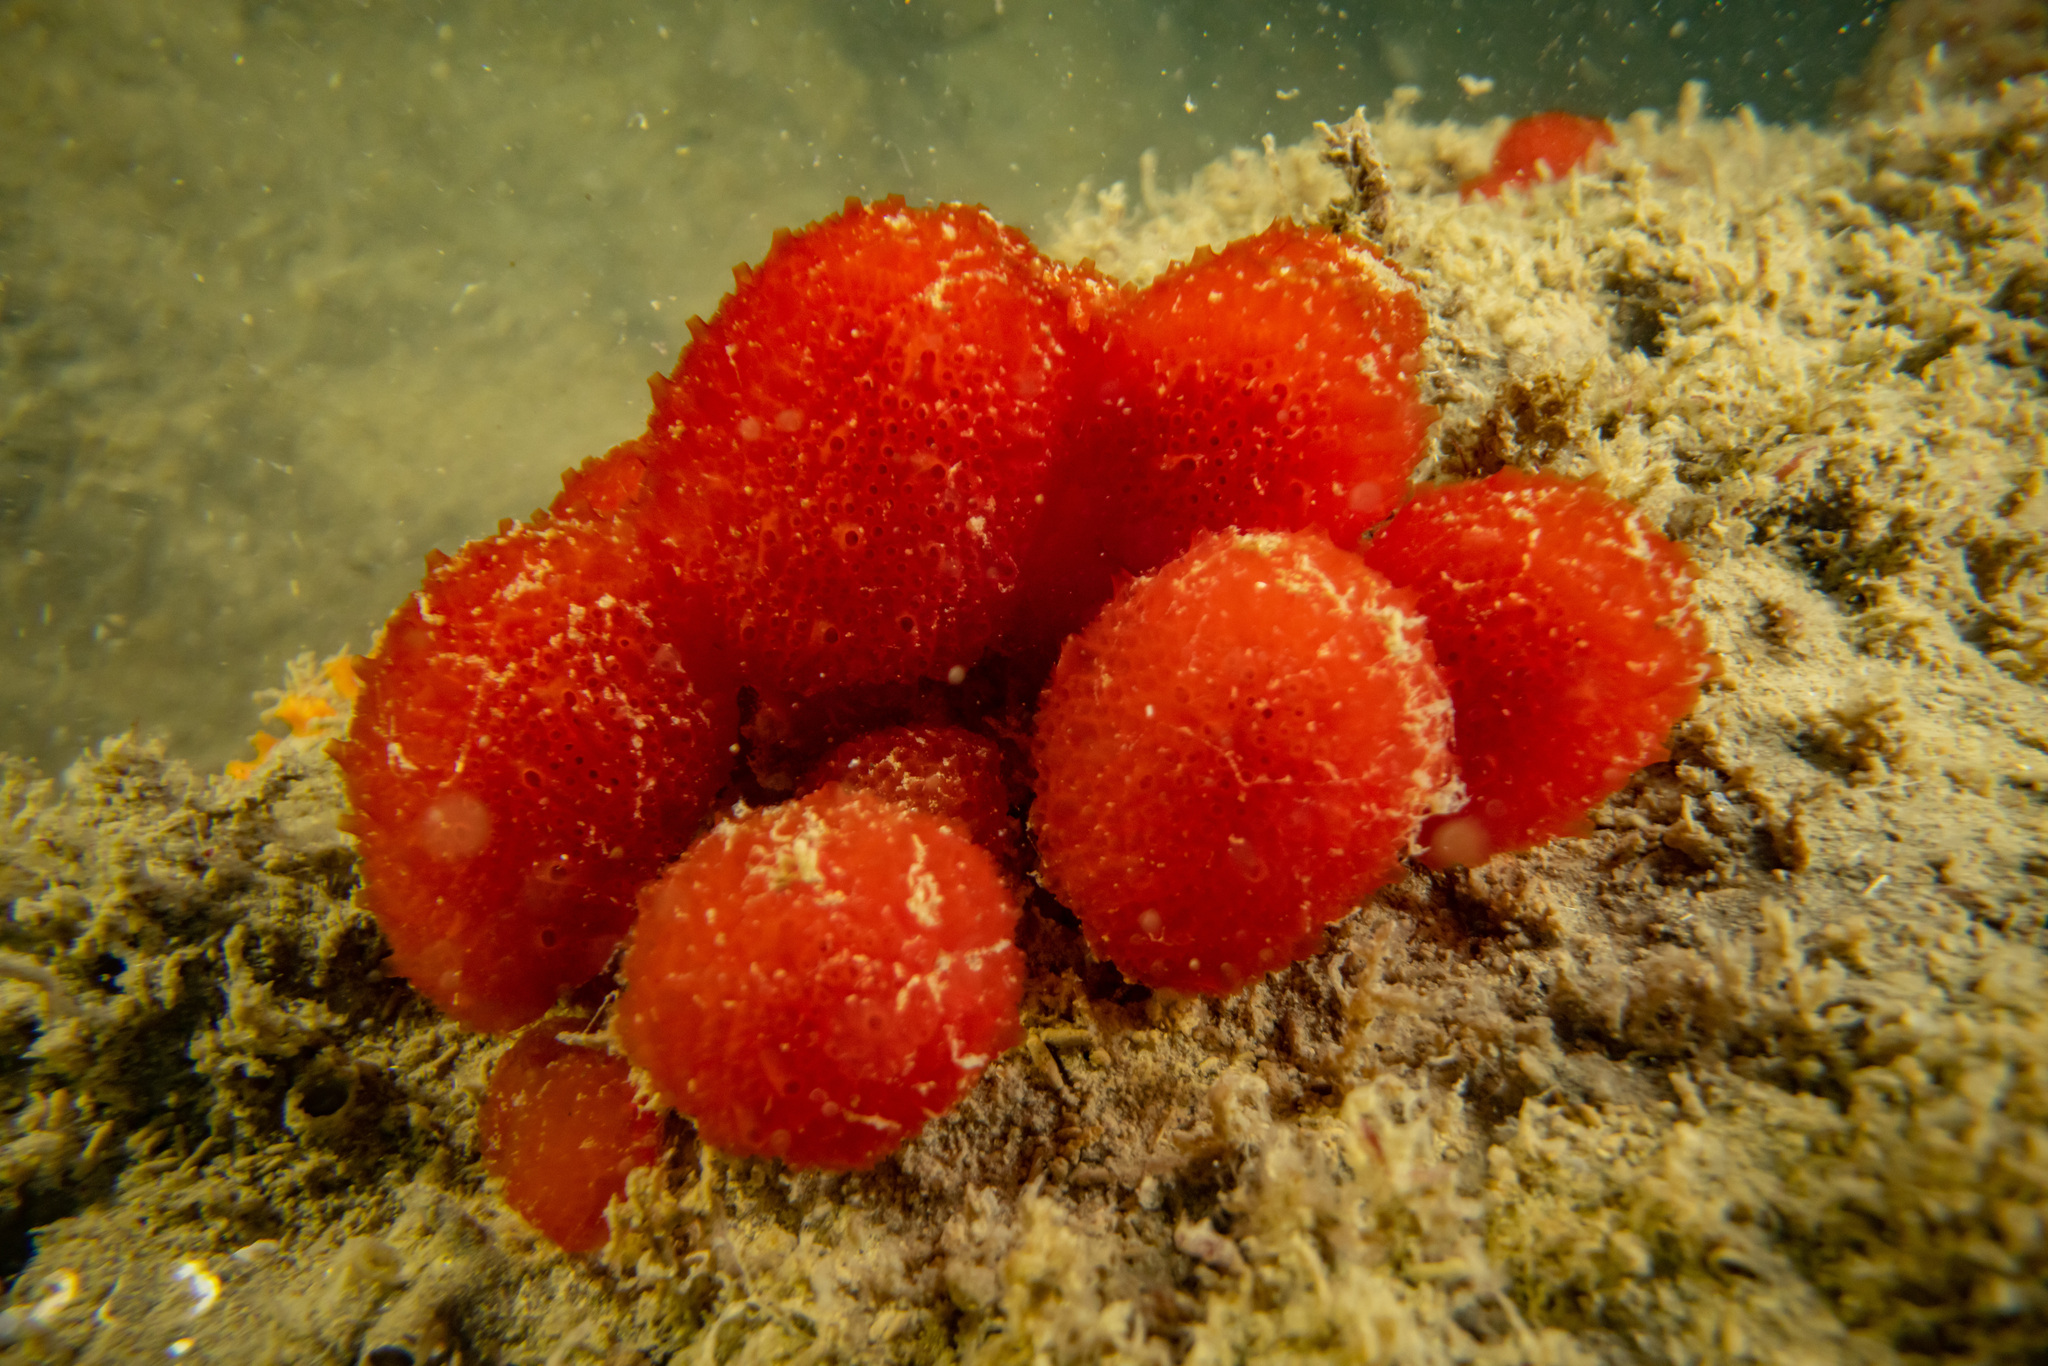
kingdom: Animalia
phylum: Chordata
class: Ascidiacea
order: Aplousobranchia
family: Polyclinidae
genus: Synoicum
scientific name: Synoicum kuranui
